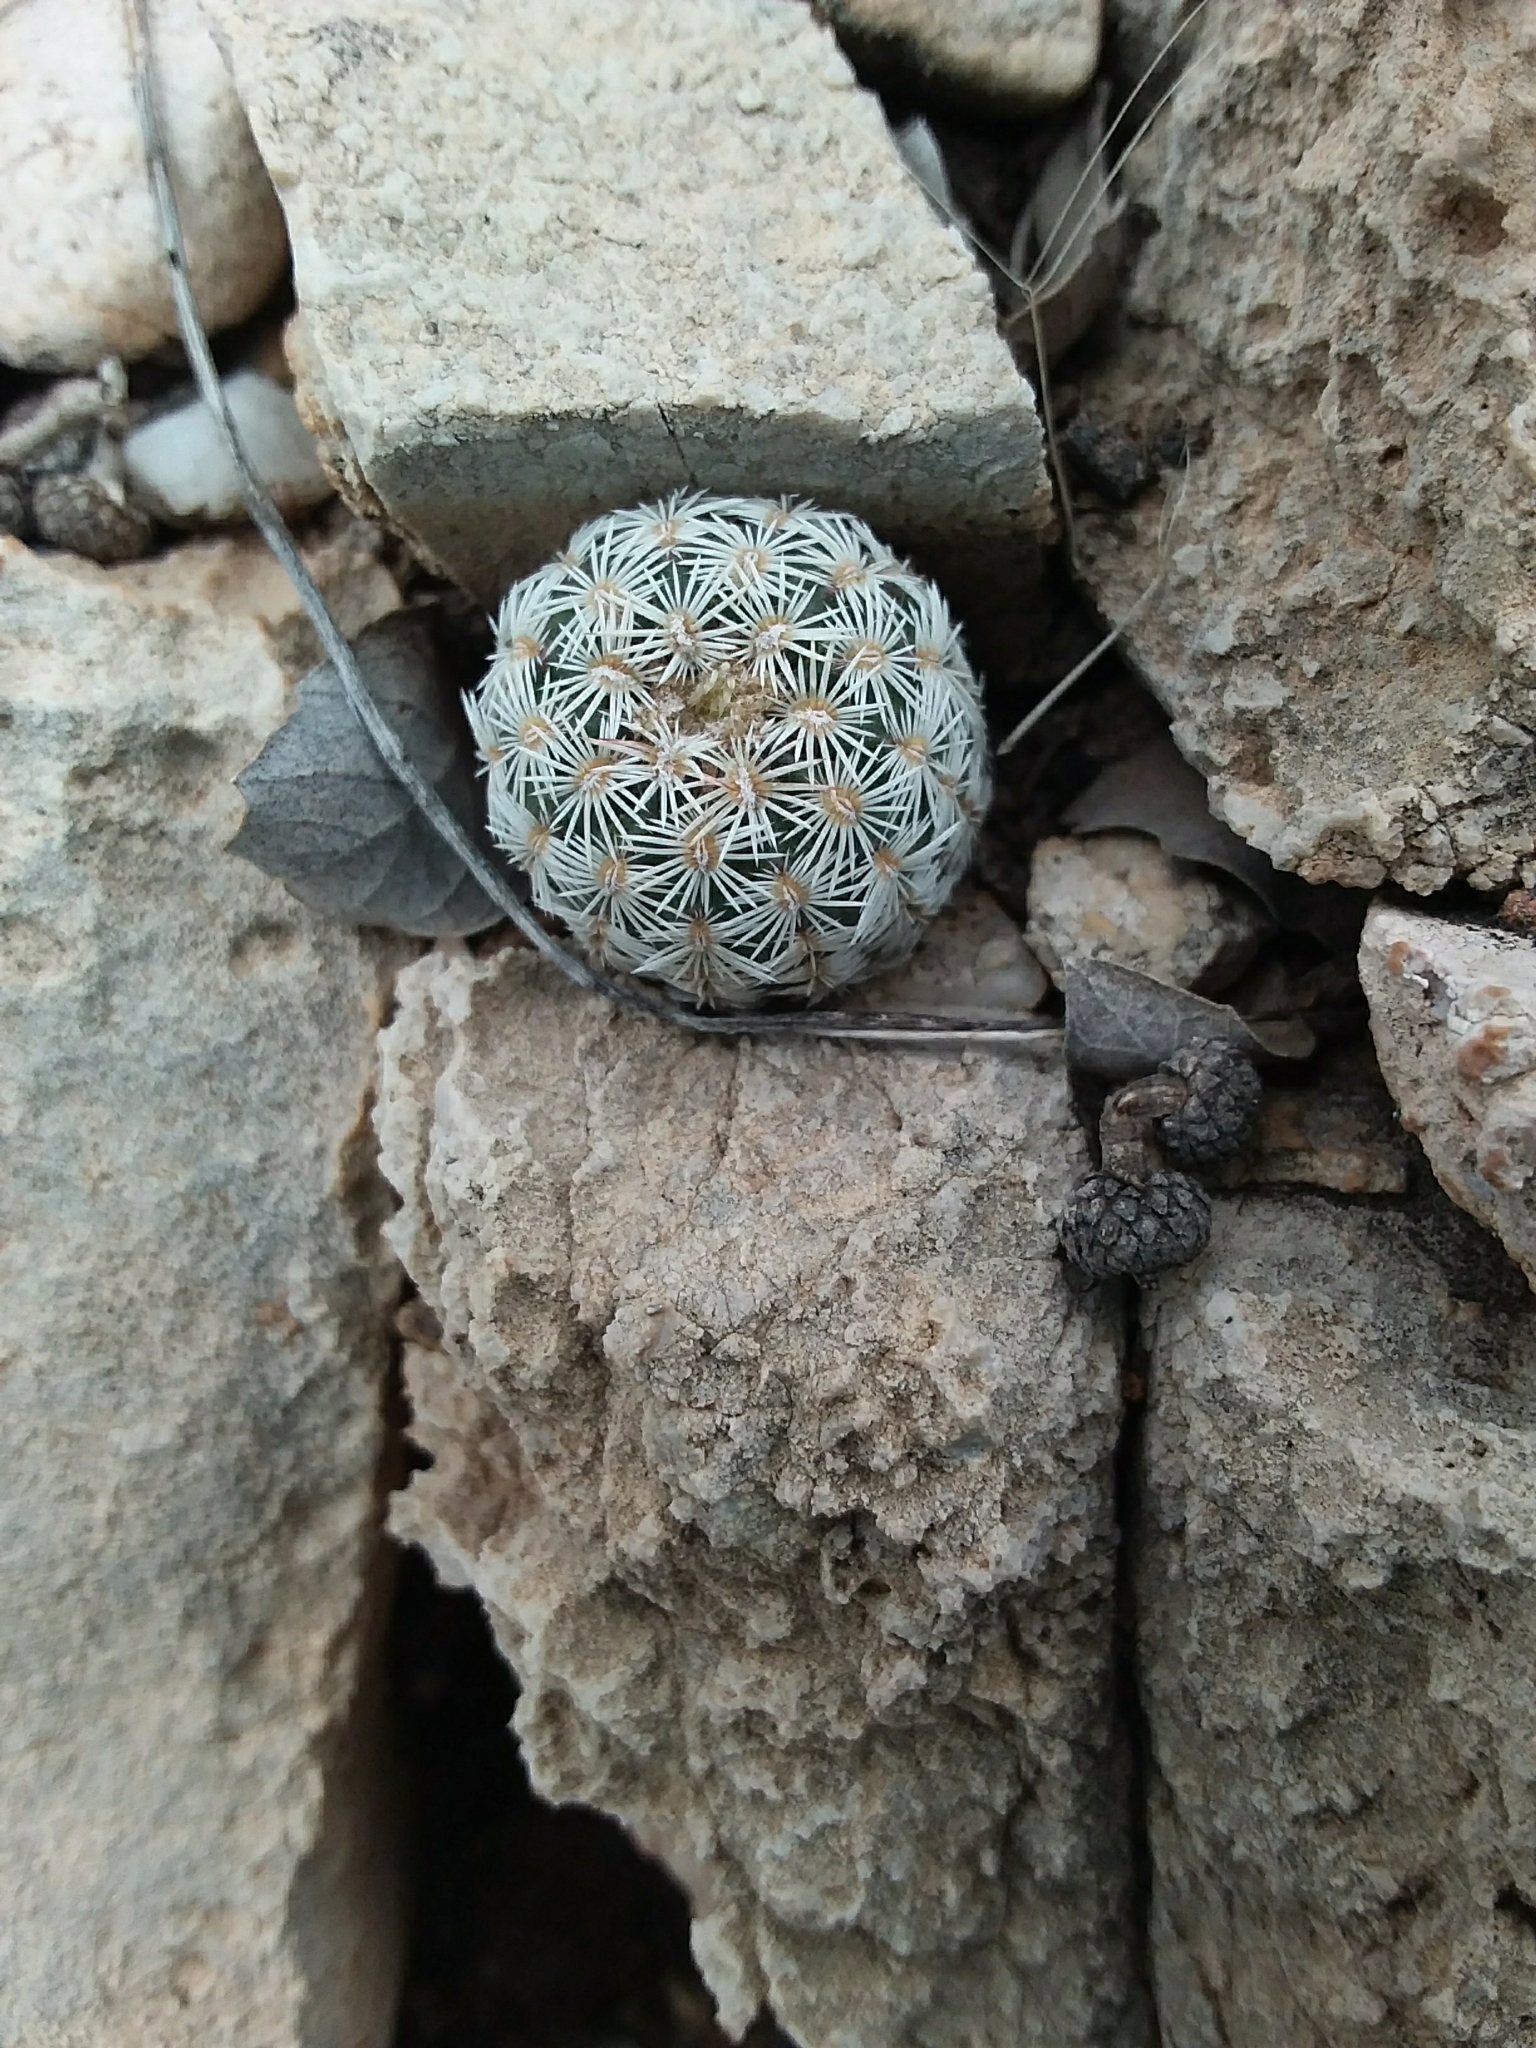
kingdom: Plantae
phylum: Tracheophyta
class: Magnoliopsida
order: Caryophyllales
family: Cactaceae
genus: Echinocereus
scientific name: Echinocereus viridiflorus
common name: Nylon hedgehog cactus
